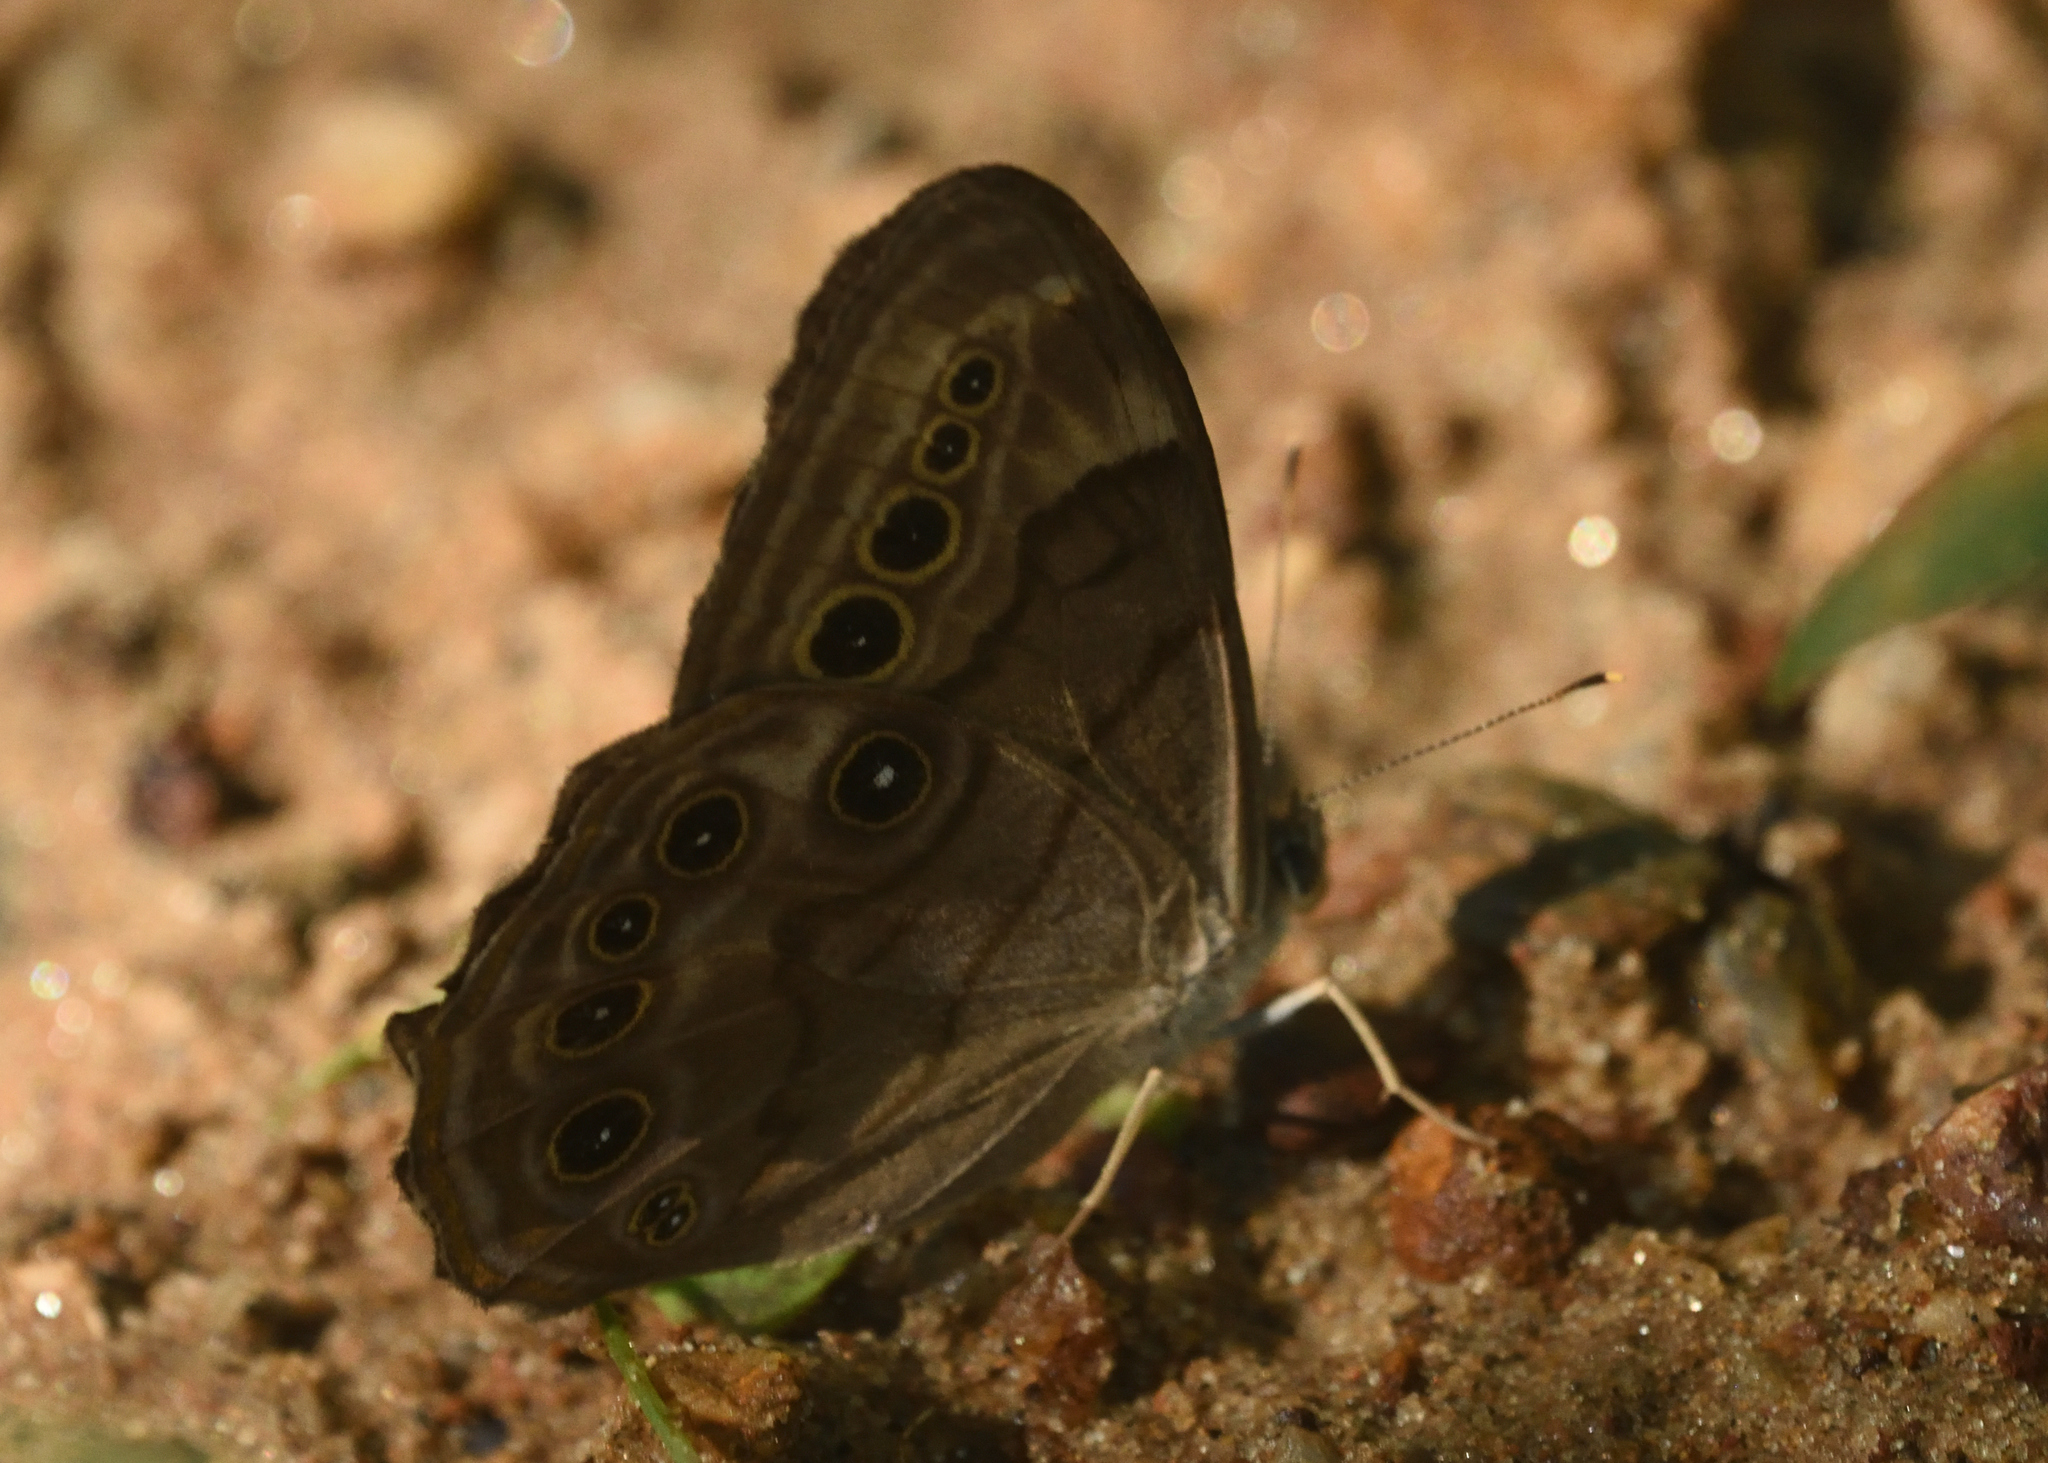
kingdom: Animalia
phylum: Arthropoda
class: Insecta
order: Lepidoptera
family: Nymphalidae
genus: Lethe
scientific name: Lethe anthedon
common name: Northern pearly-eye
